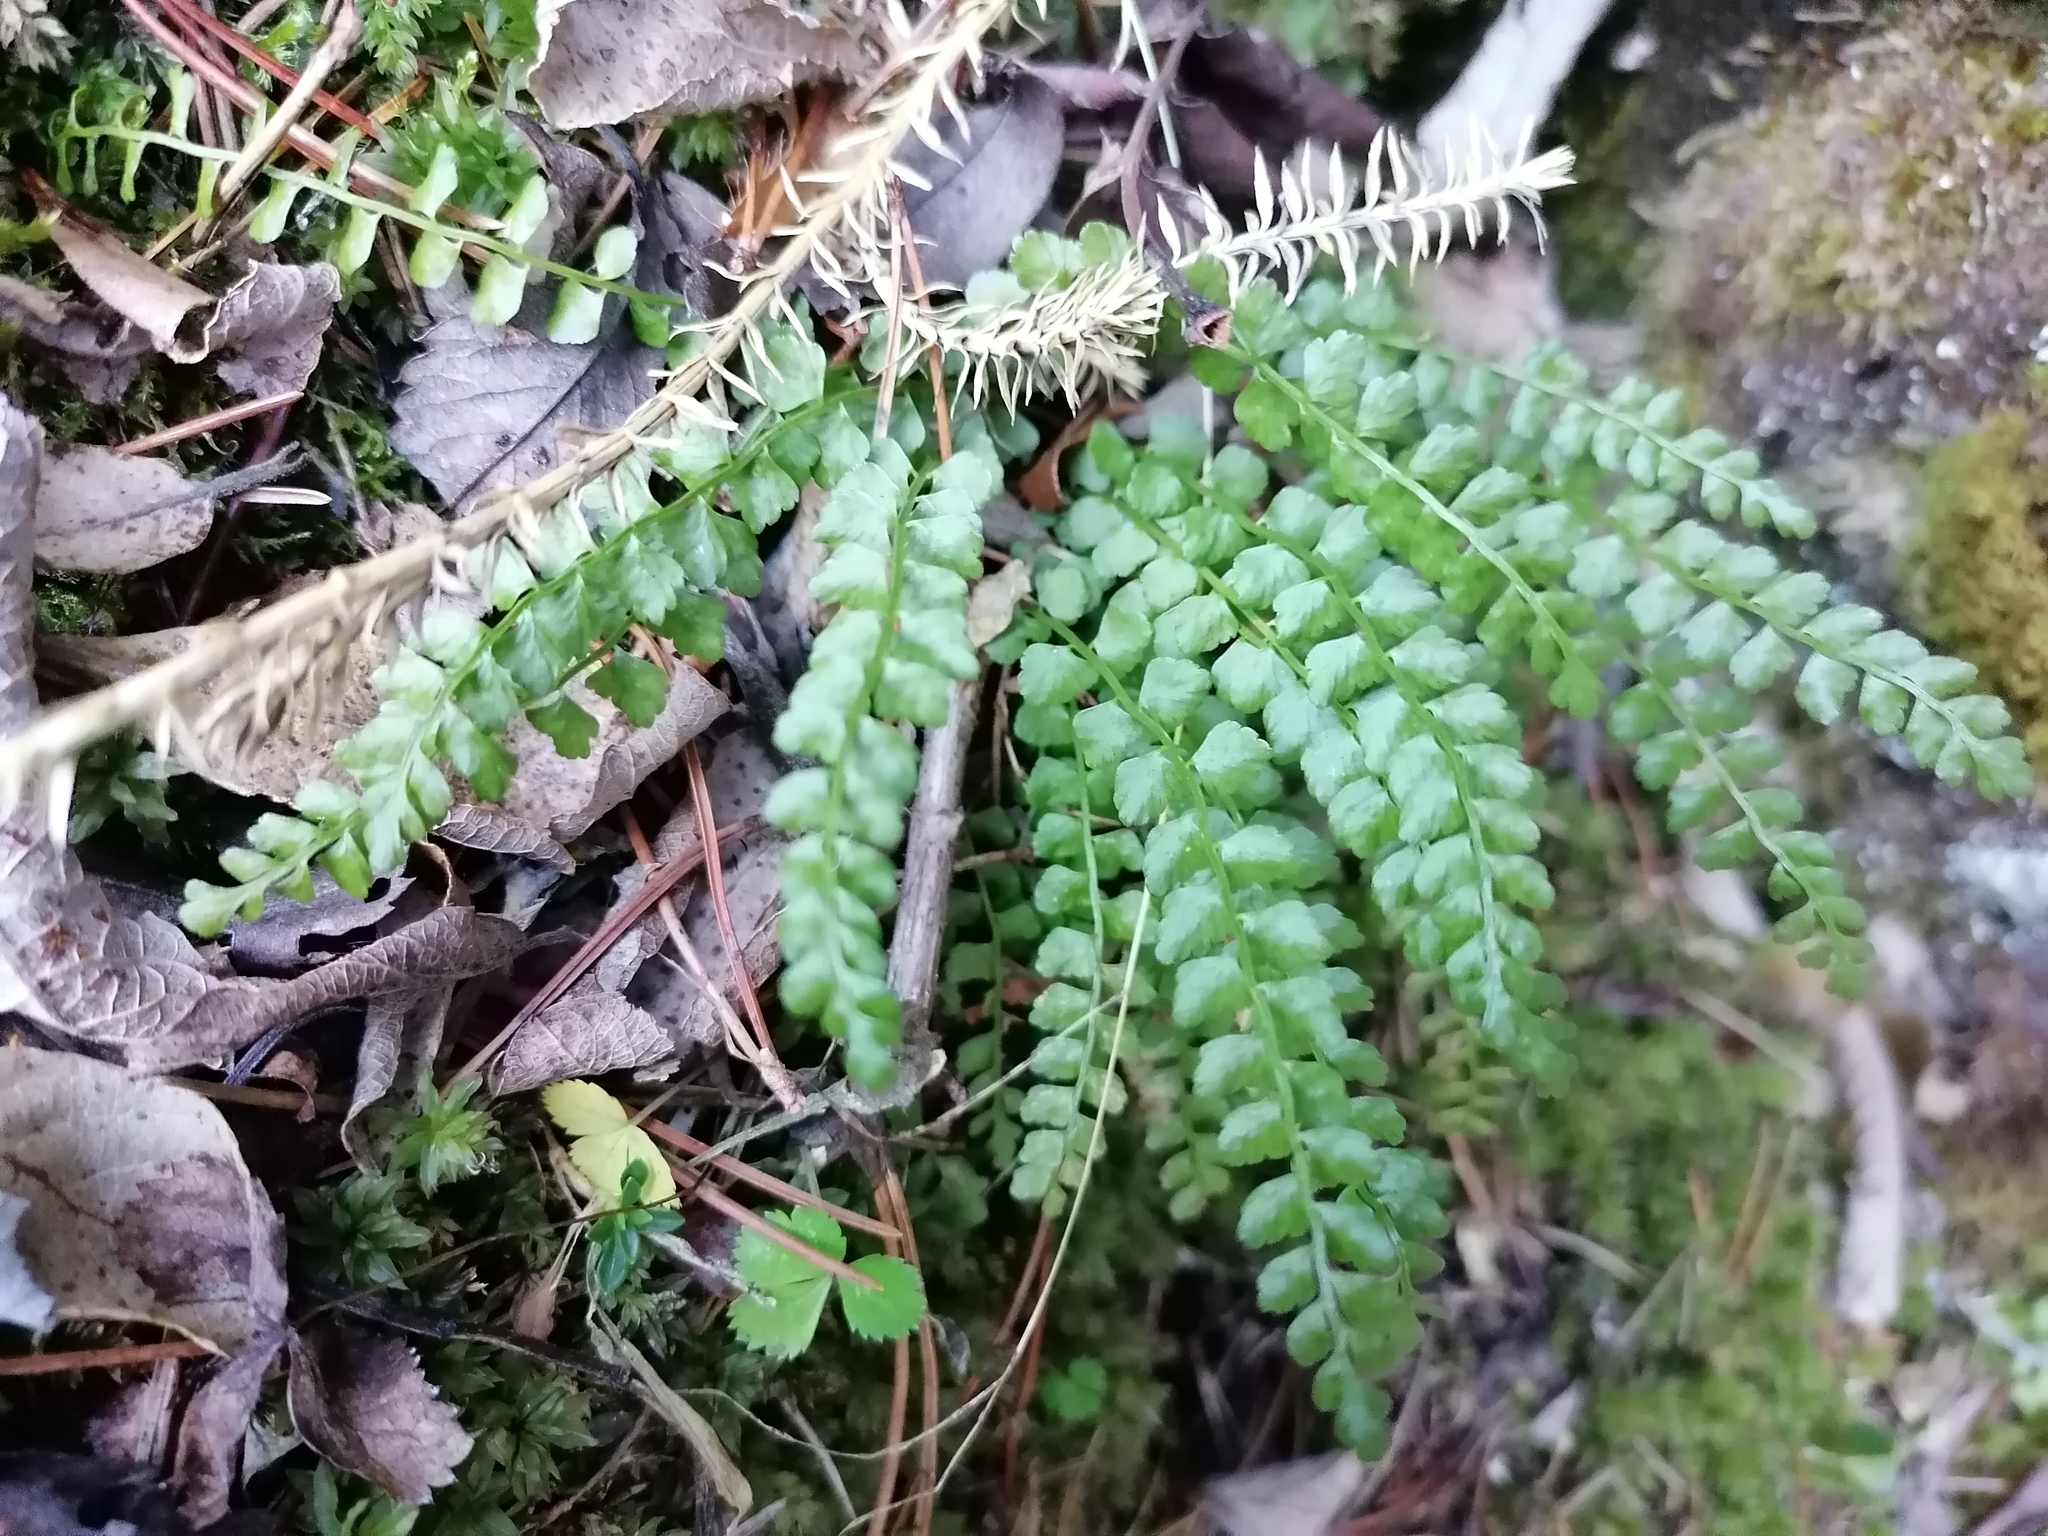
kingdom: Plantae
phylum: Tracheophyta
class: Polypodiopsida
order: Polypodiales
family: Aspleniaceae
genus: Asplenium
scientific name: Asplenium viride
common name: Green spleenwort
